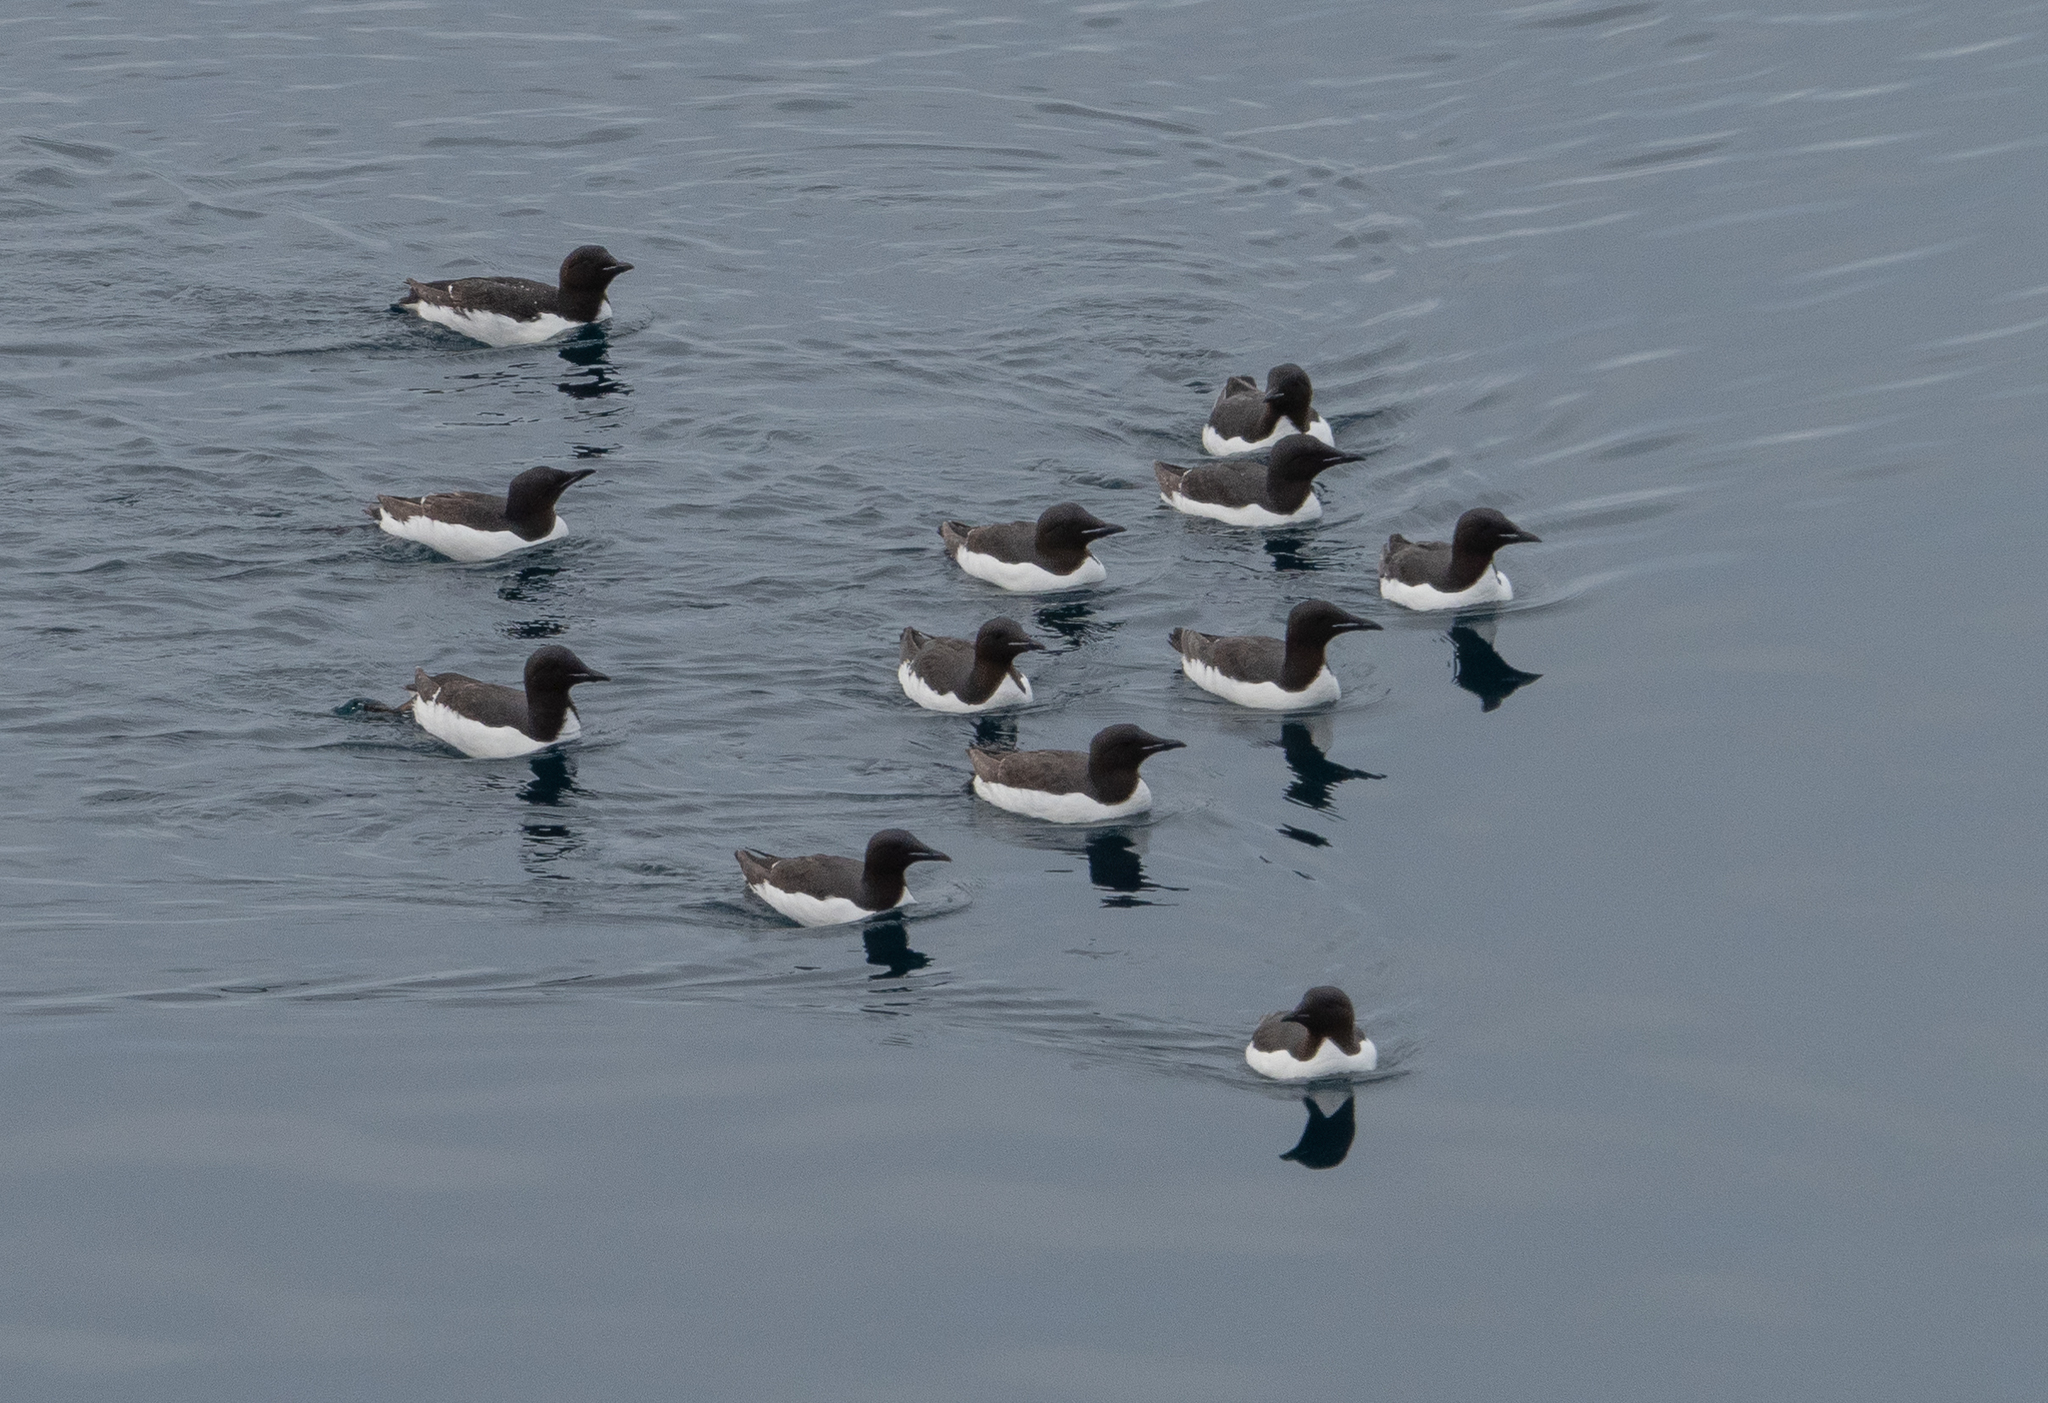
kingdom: Animalia
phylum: Chordata
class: Aves
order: Charadriiformes
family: Alcidae
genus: Uria
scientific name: Uria lomvia
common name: Thick-billed murre
